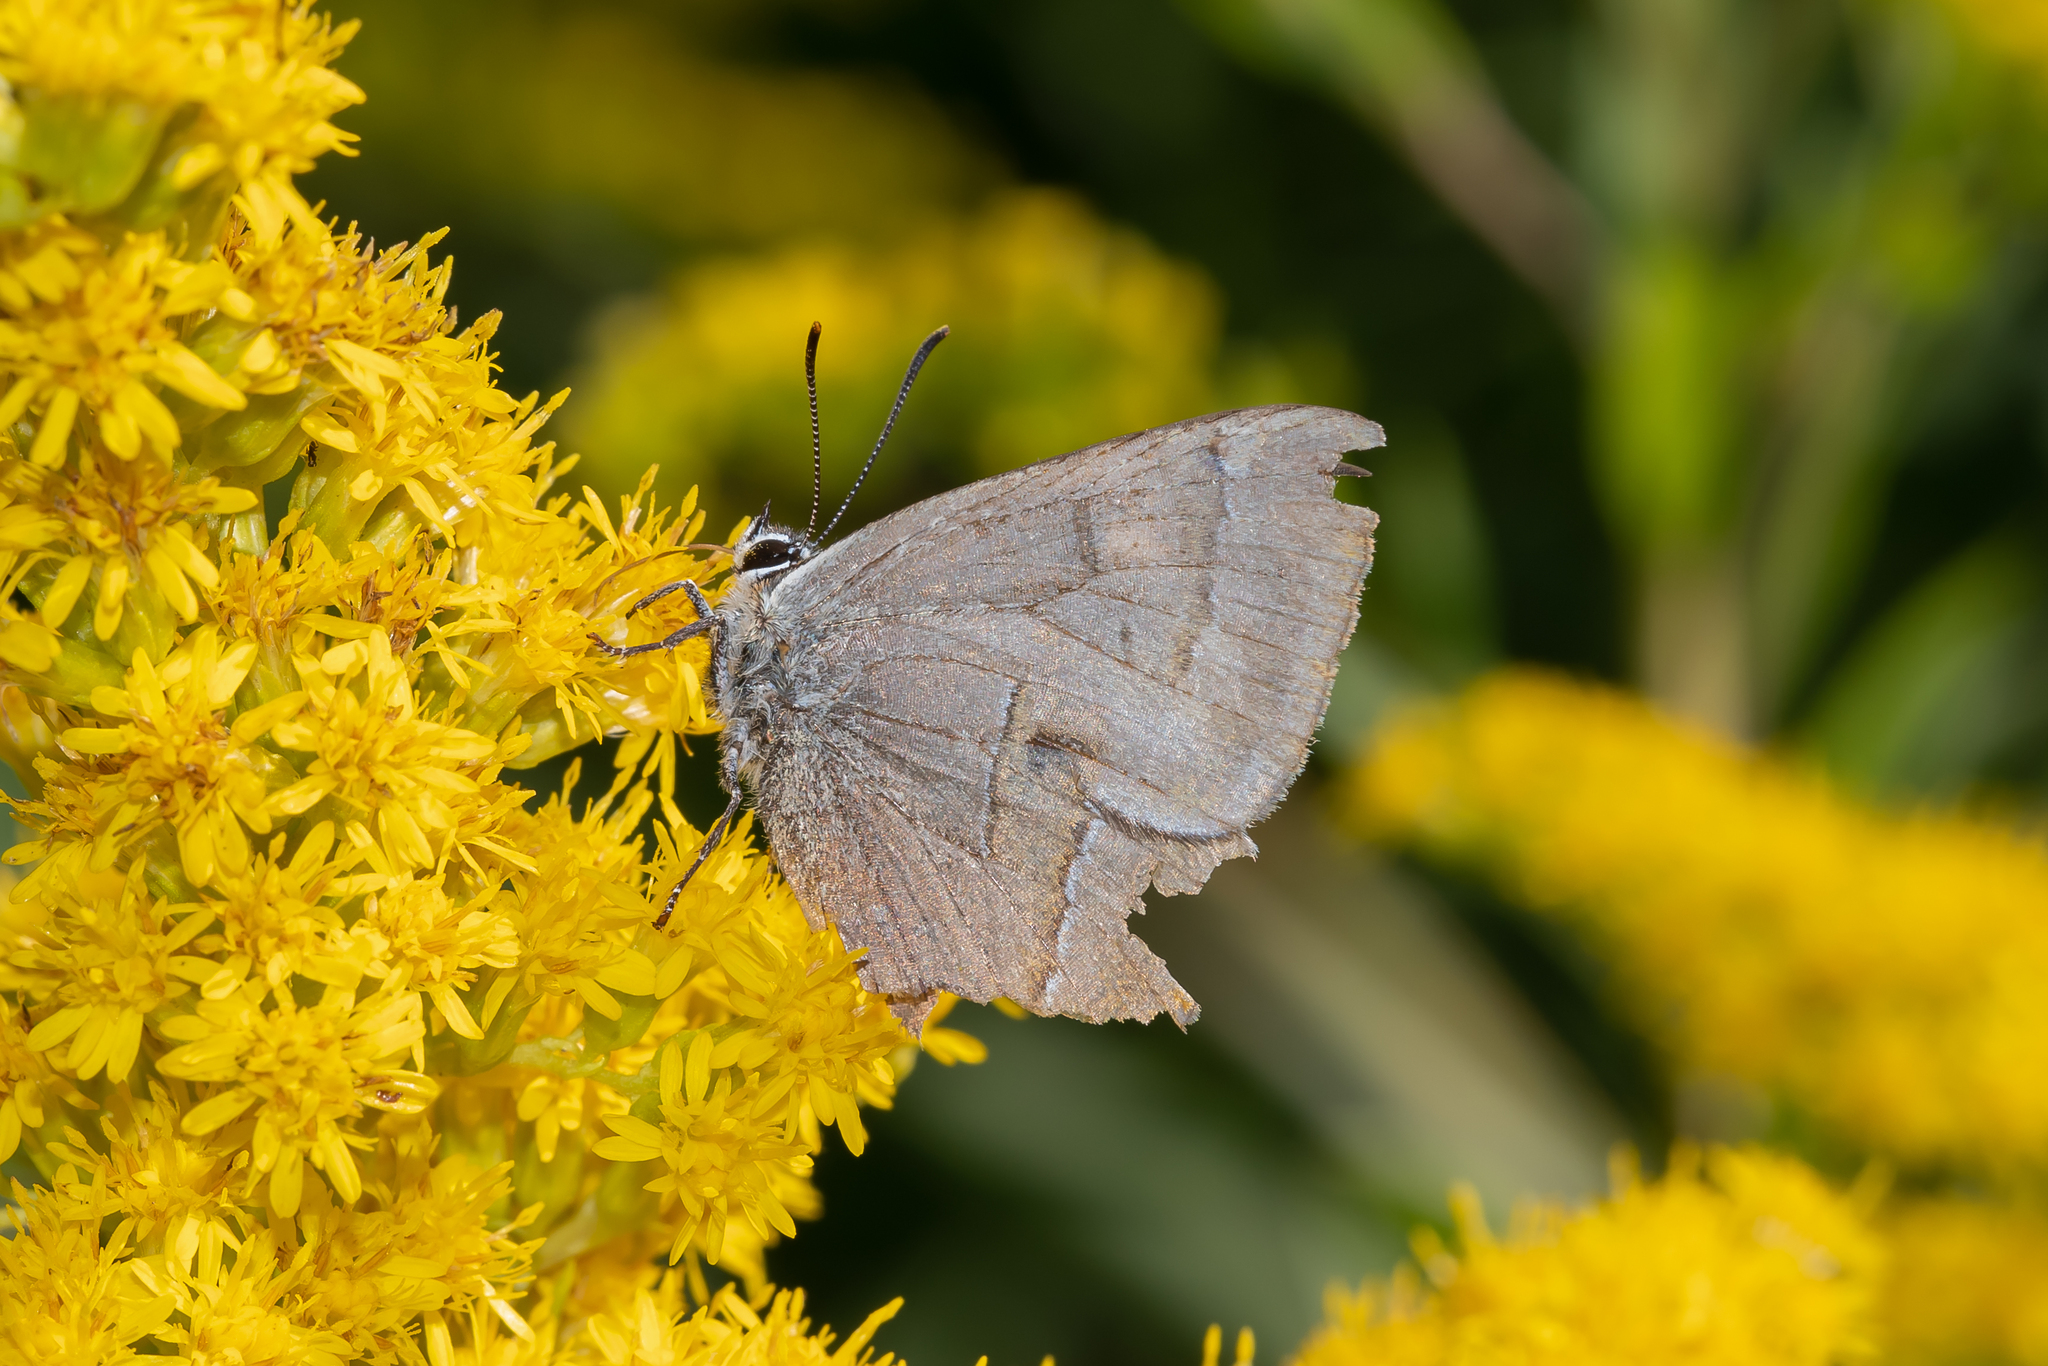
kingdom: Animalia
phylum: Arthropoda
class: Insecta
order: Lepidoptera
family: Lycaenidae
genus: Thecla
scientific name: Thecla betulae
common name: Brown hairstreak
